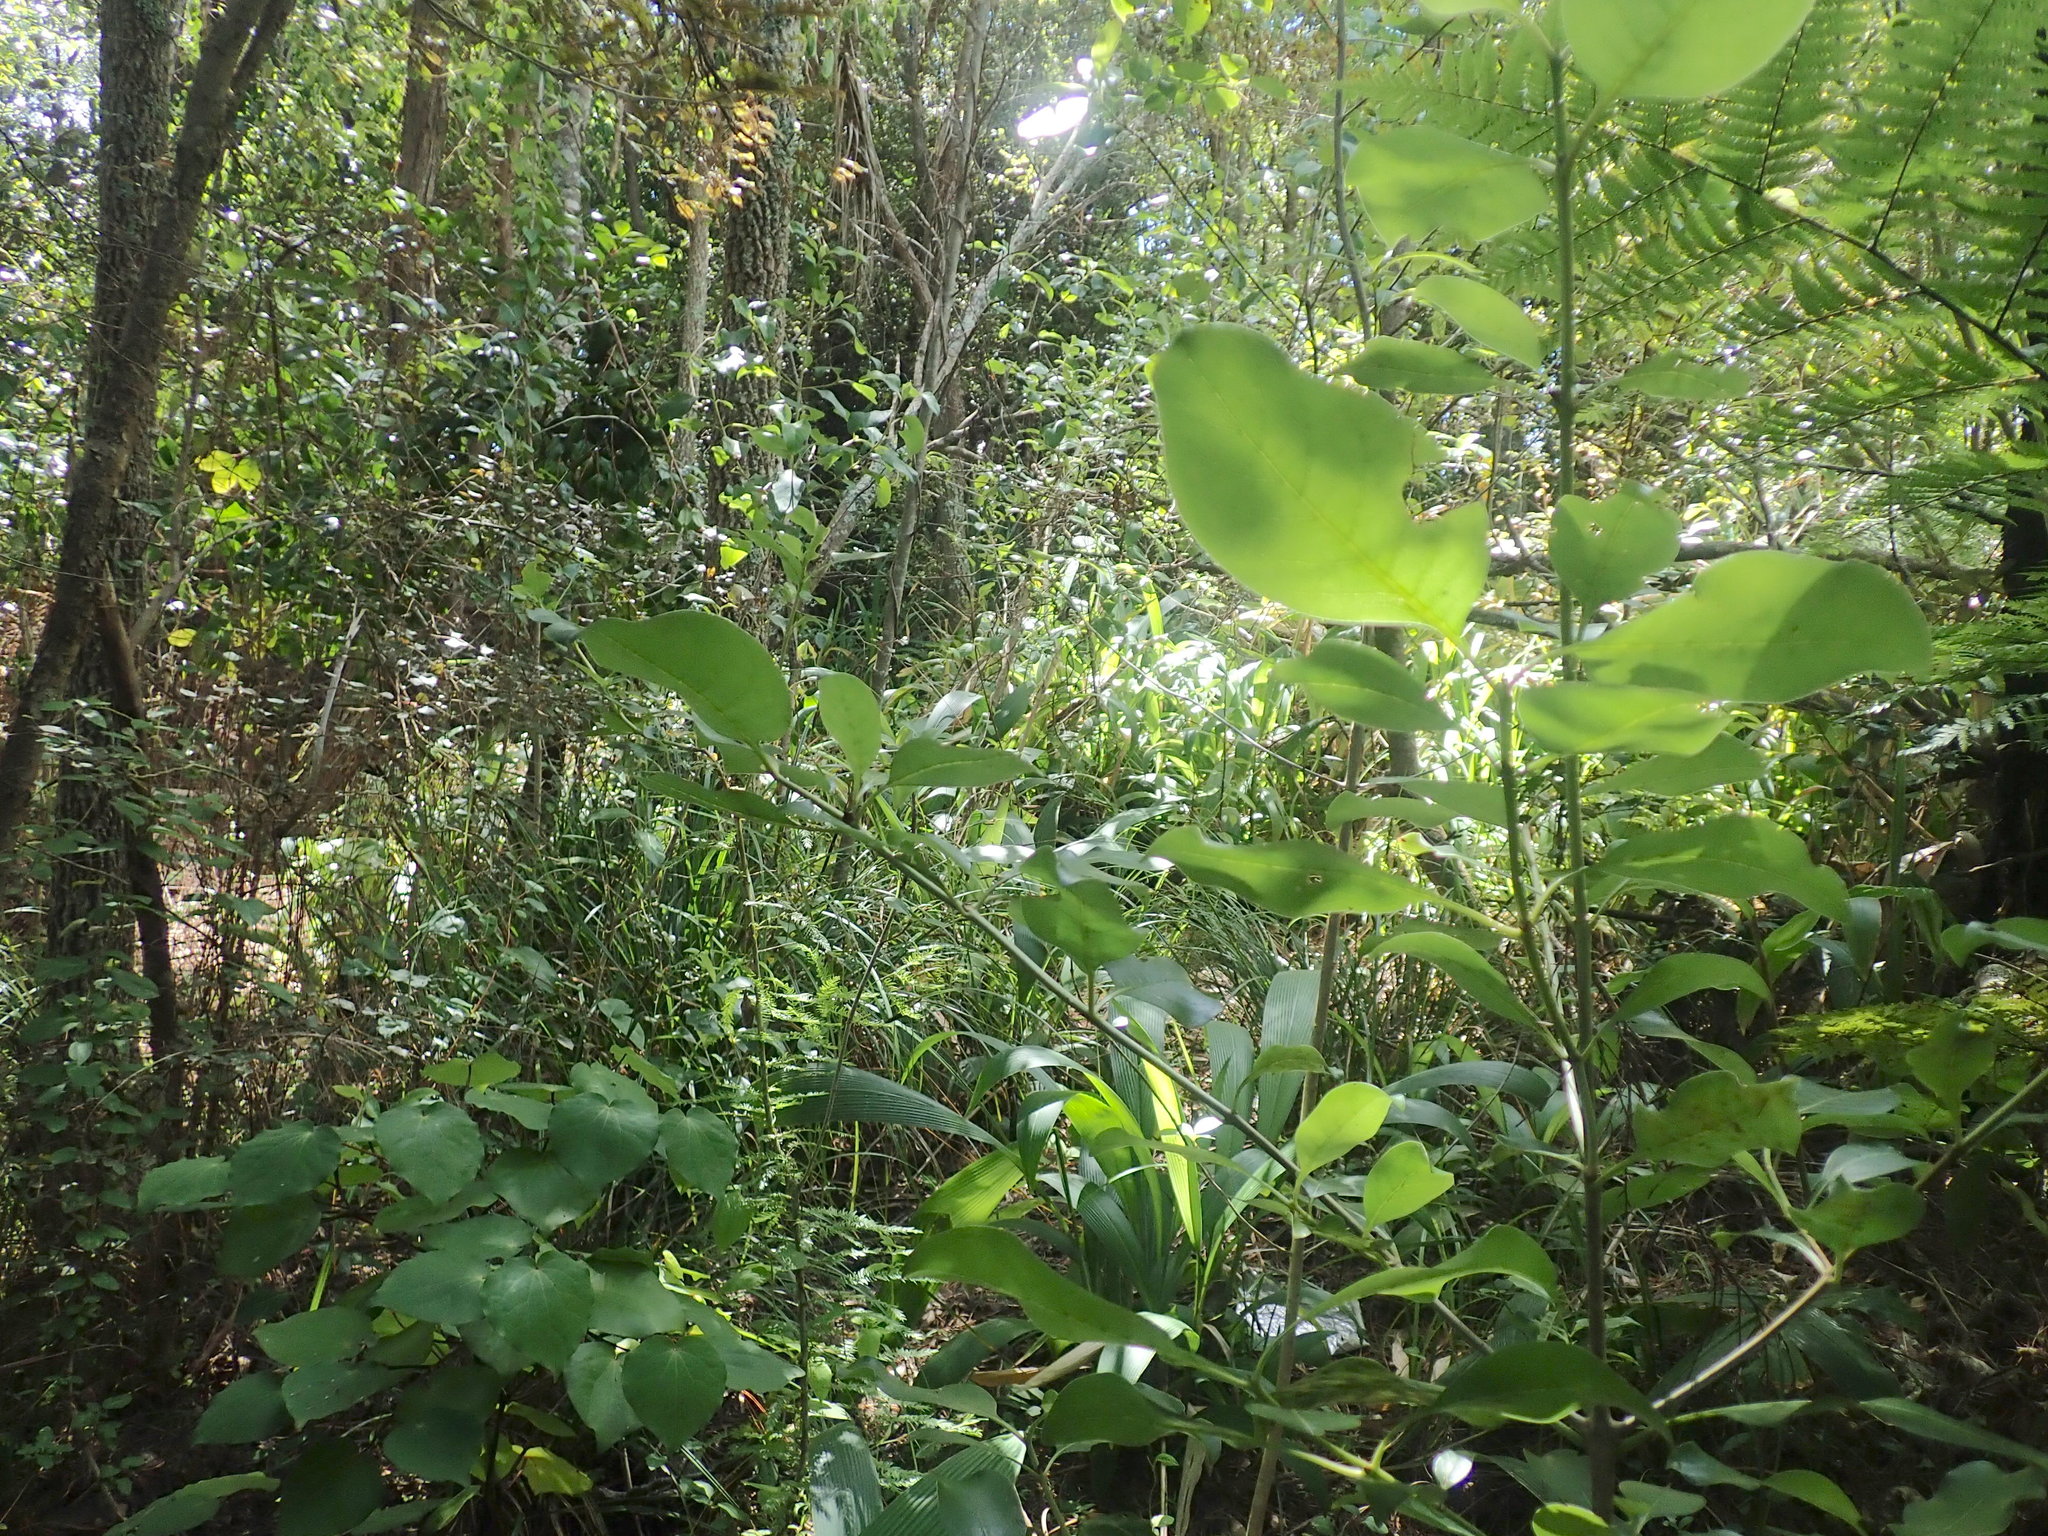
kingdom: Plantae
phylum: Tracheophyta
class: Liliopsida
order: Asparagales
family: Asparagaceae
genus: Asparagus
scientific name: Asparagus scandens
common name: Asparagus-fern
